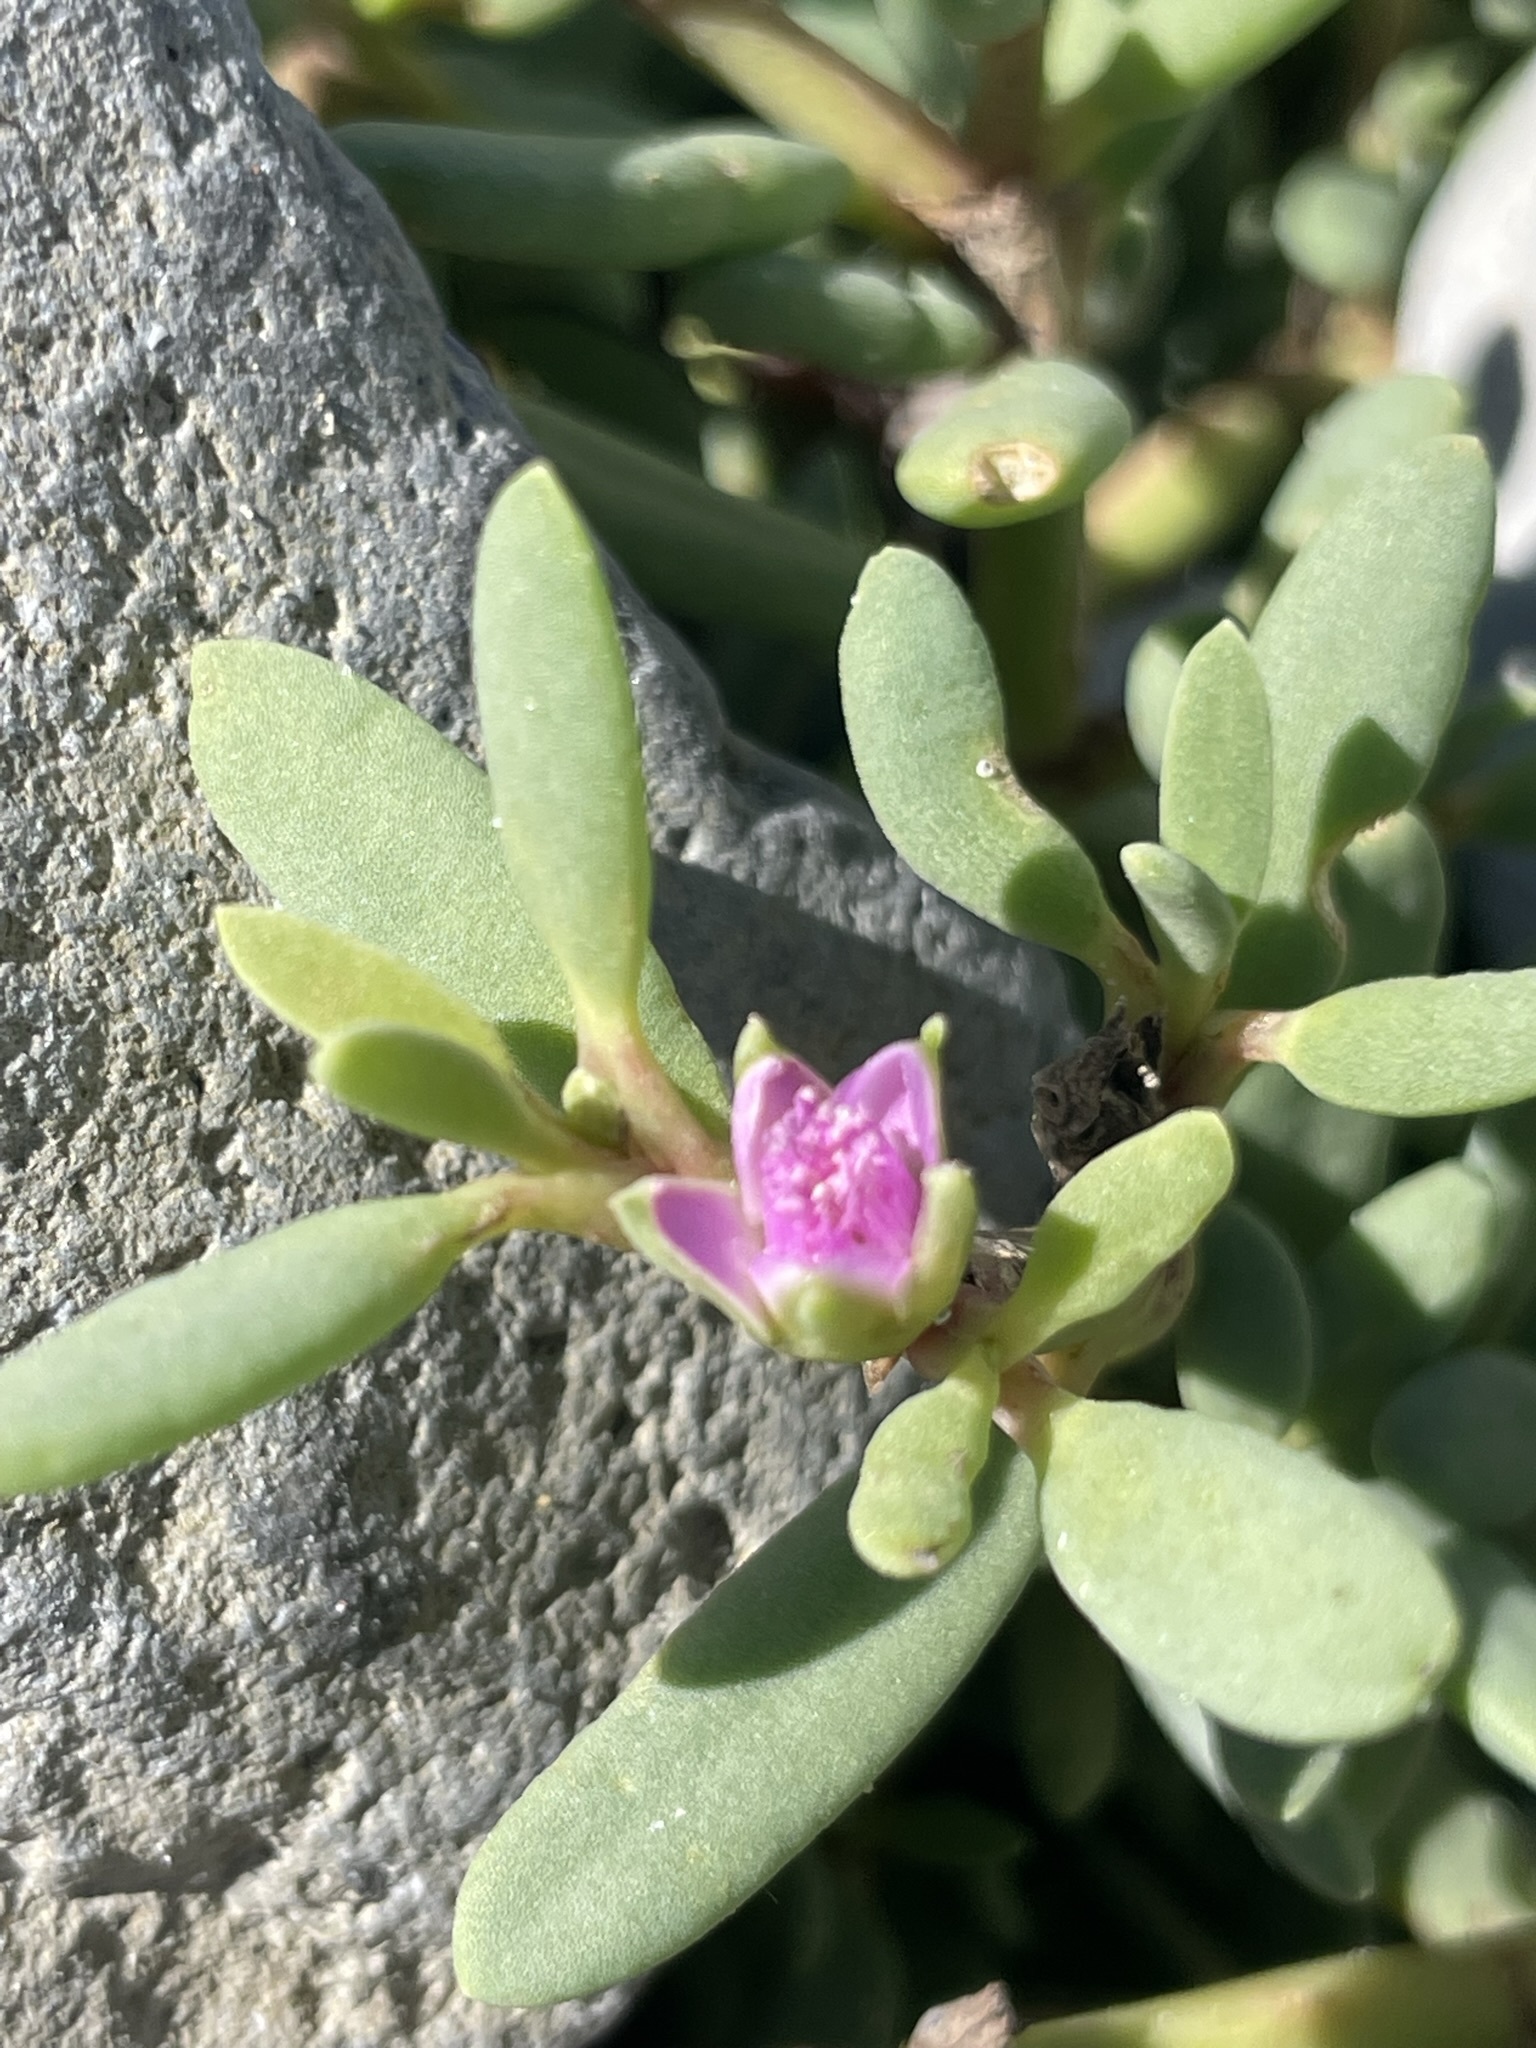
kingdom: Plantae
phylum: Tracheophyta
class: Magnoliopsida
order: Caryophyllales
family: Aizoaceae
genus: Sesuvium
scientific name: Sesuvium portulacastrum
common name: Sea-purslane
